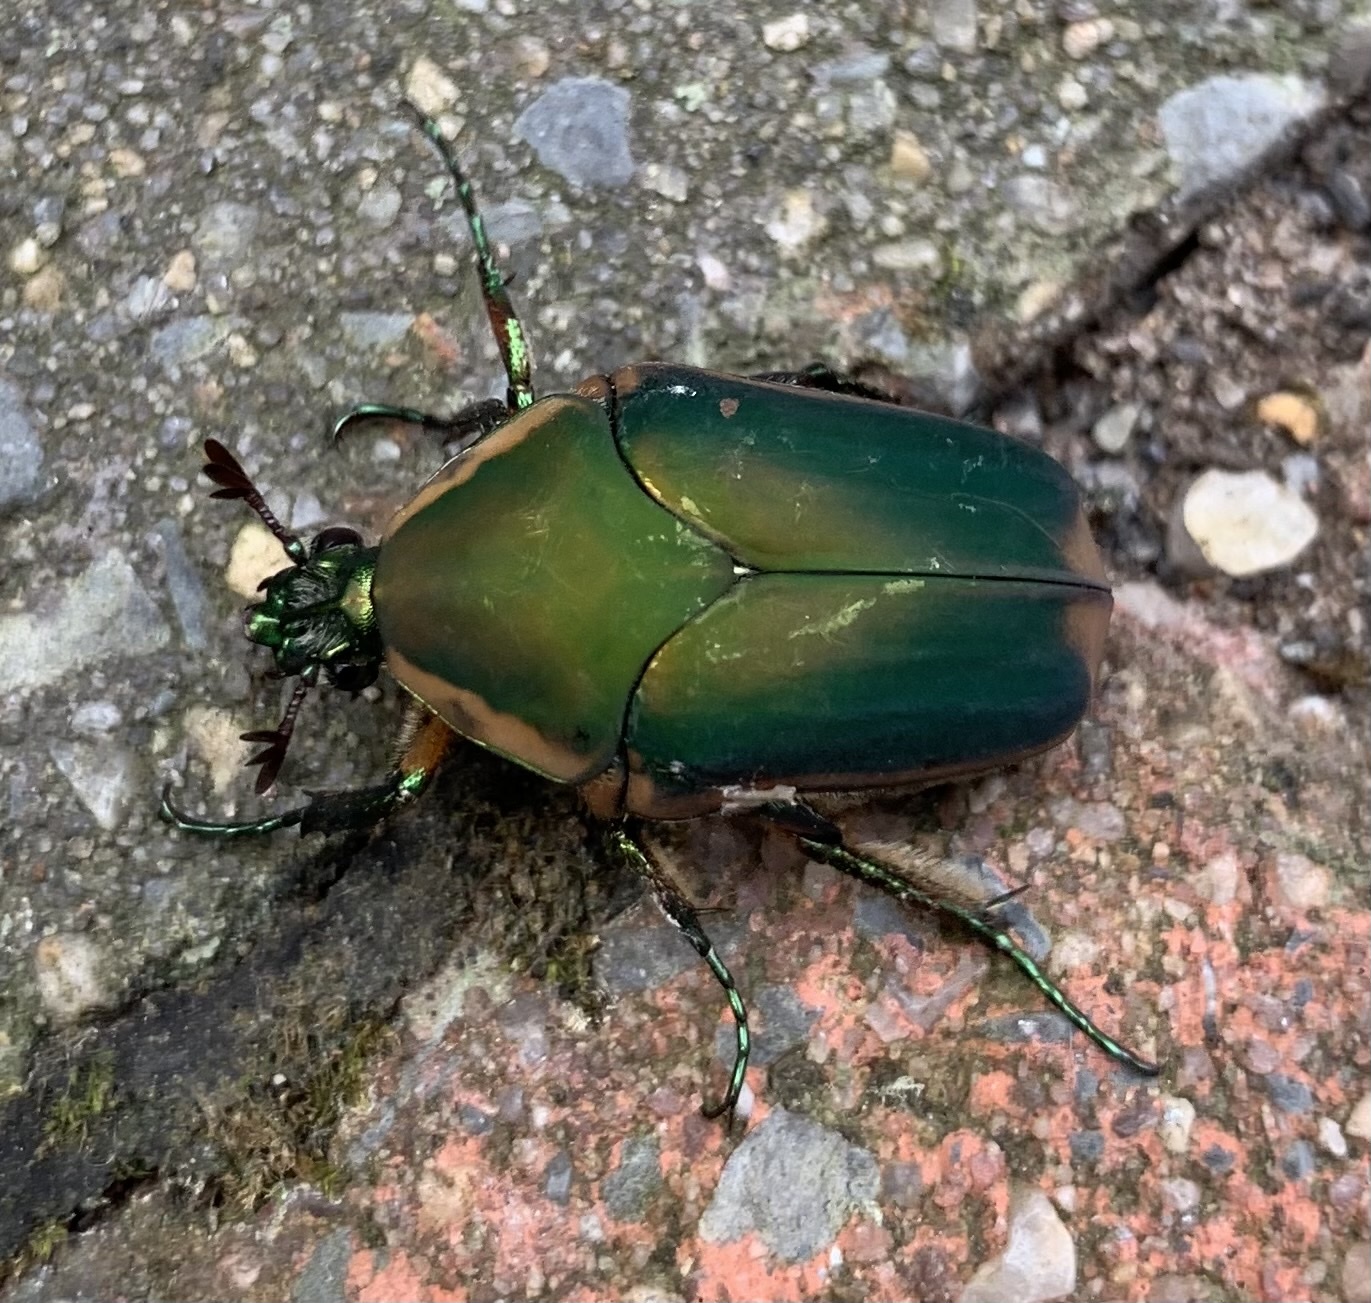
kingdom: Animalia
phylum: Arthropoda
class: Insecta
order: Coleoptera
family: Scarabaeidae
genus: Cotinis
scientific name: Cotinis nitida
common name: Common green june beetle
